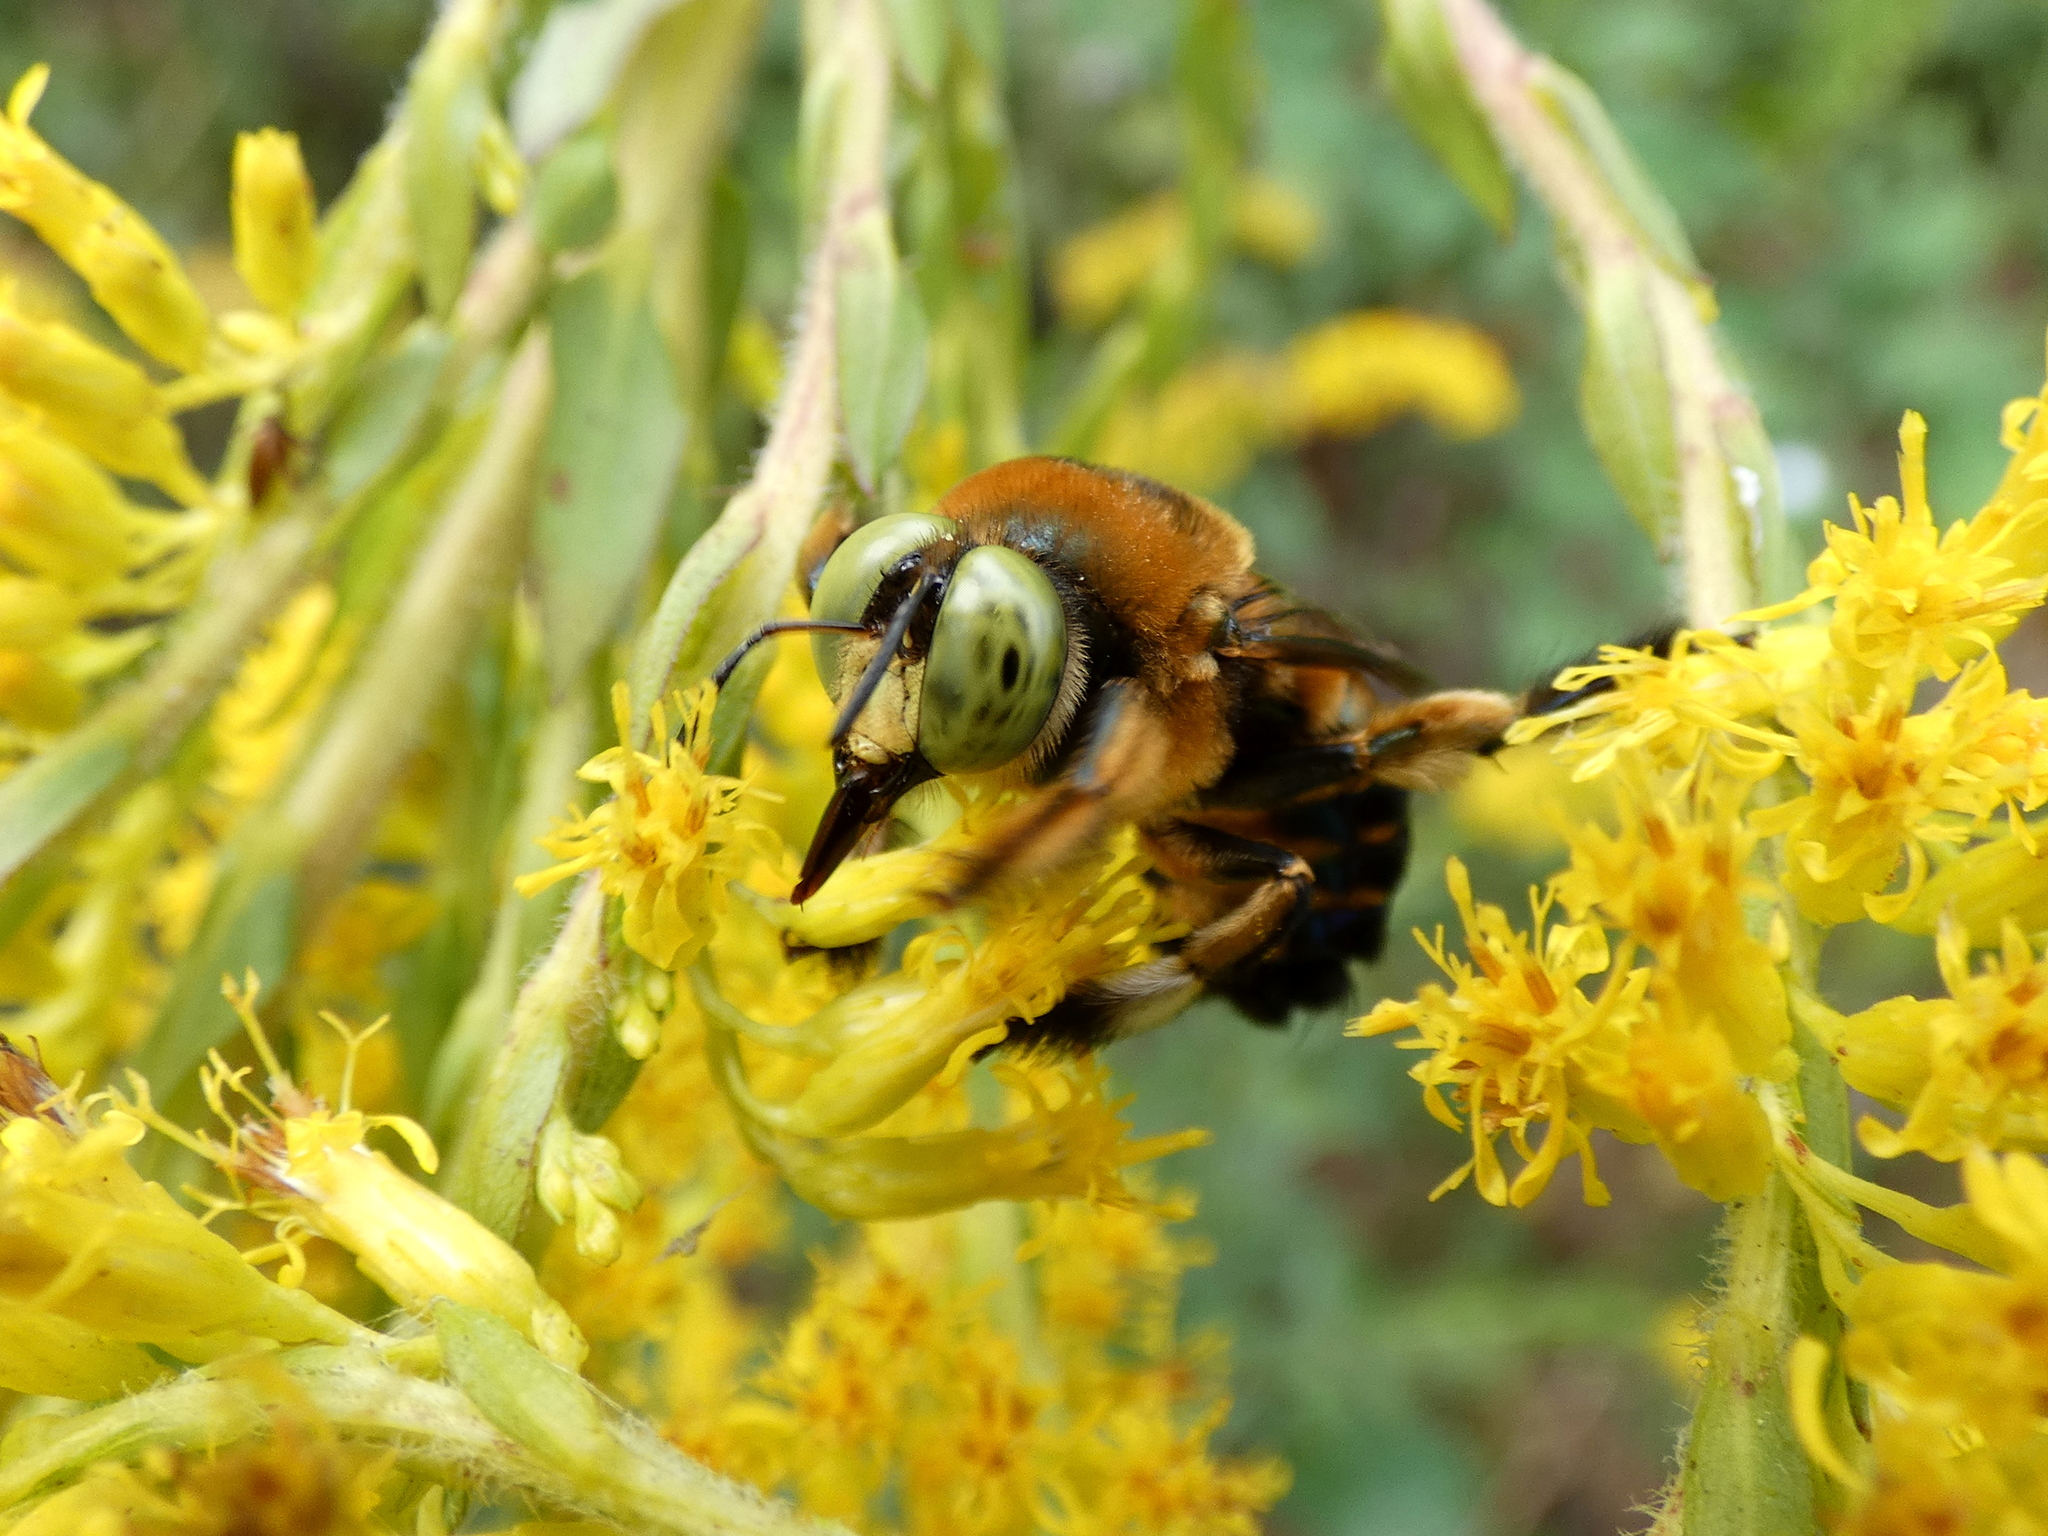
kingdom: Animalia
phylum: Arthropoda
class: Insecta
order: Hymenoptera
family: Apidae
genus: Xylocopa
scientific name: Xylocopa micans
